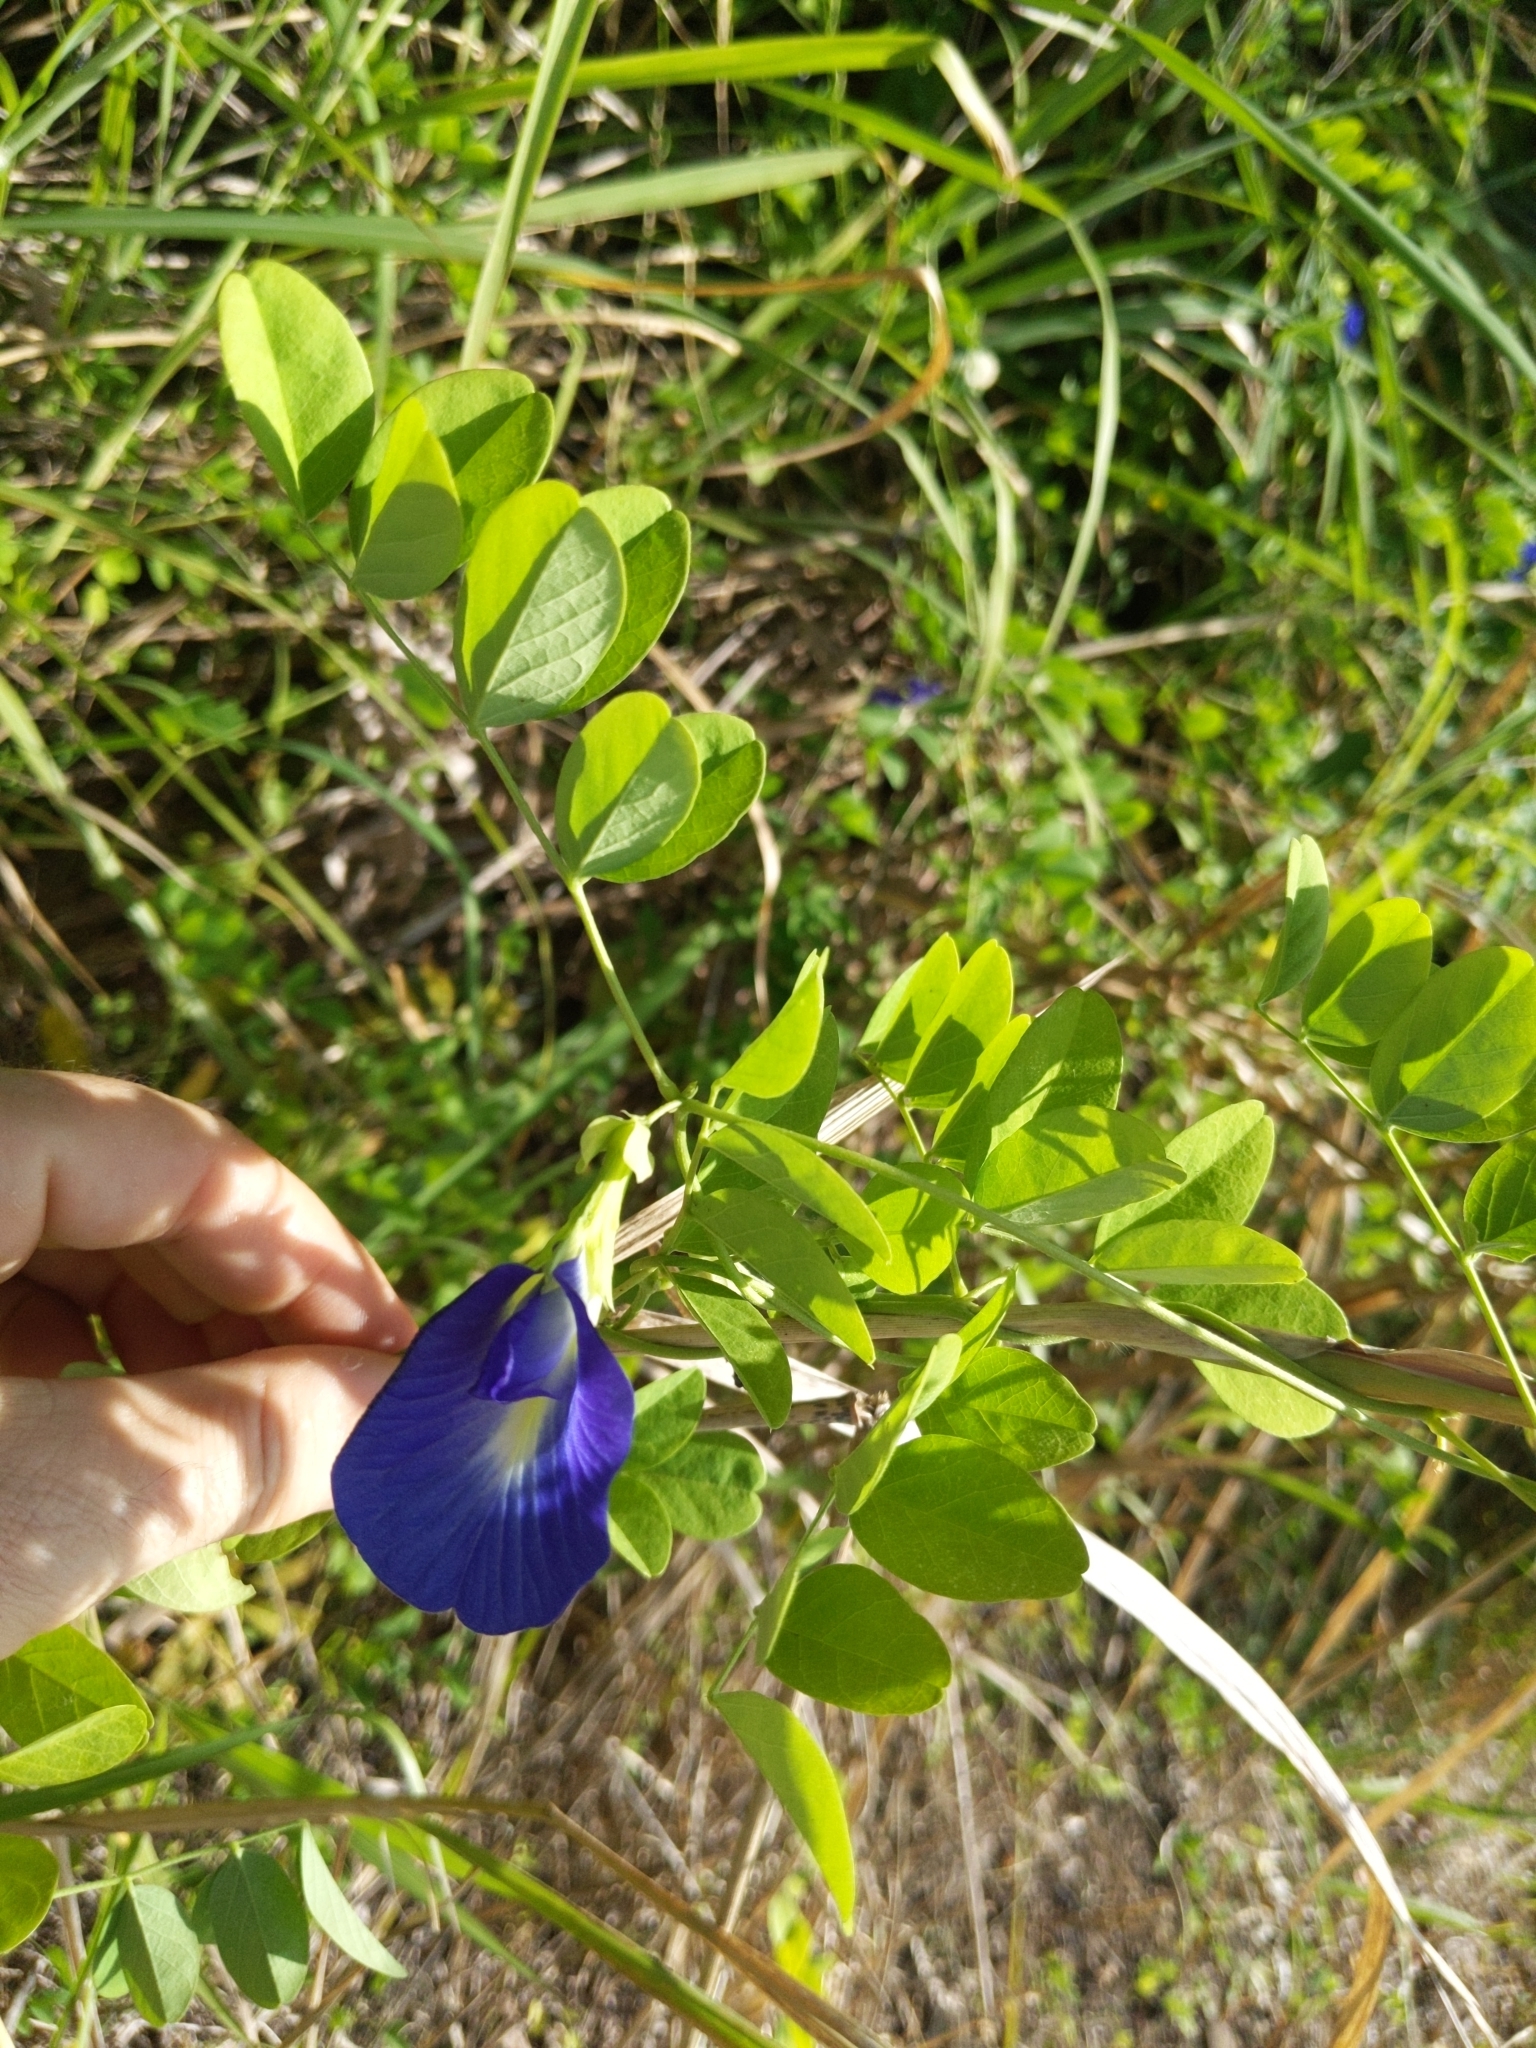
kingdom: Plantae
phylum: Tracheophyta
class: Magnoliopsida
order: Fabales
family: Fabaceae
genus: Clitoria
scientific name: Clitoria ternatea
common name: Asian pigeonwings
